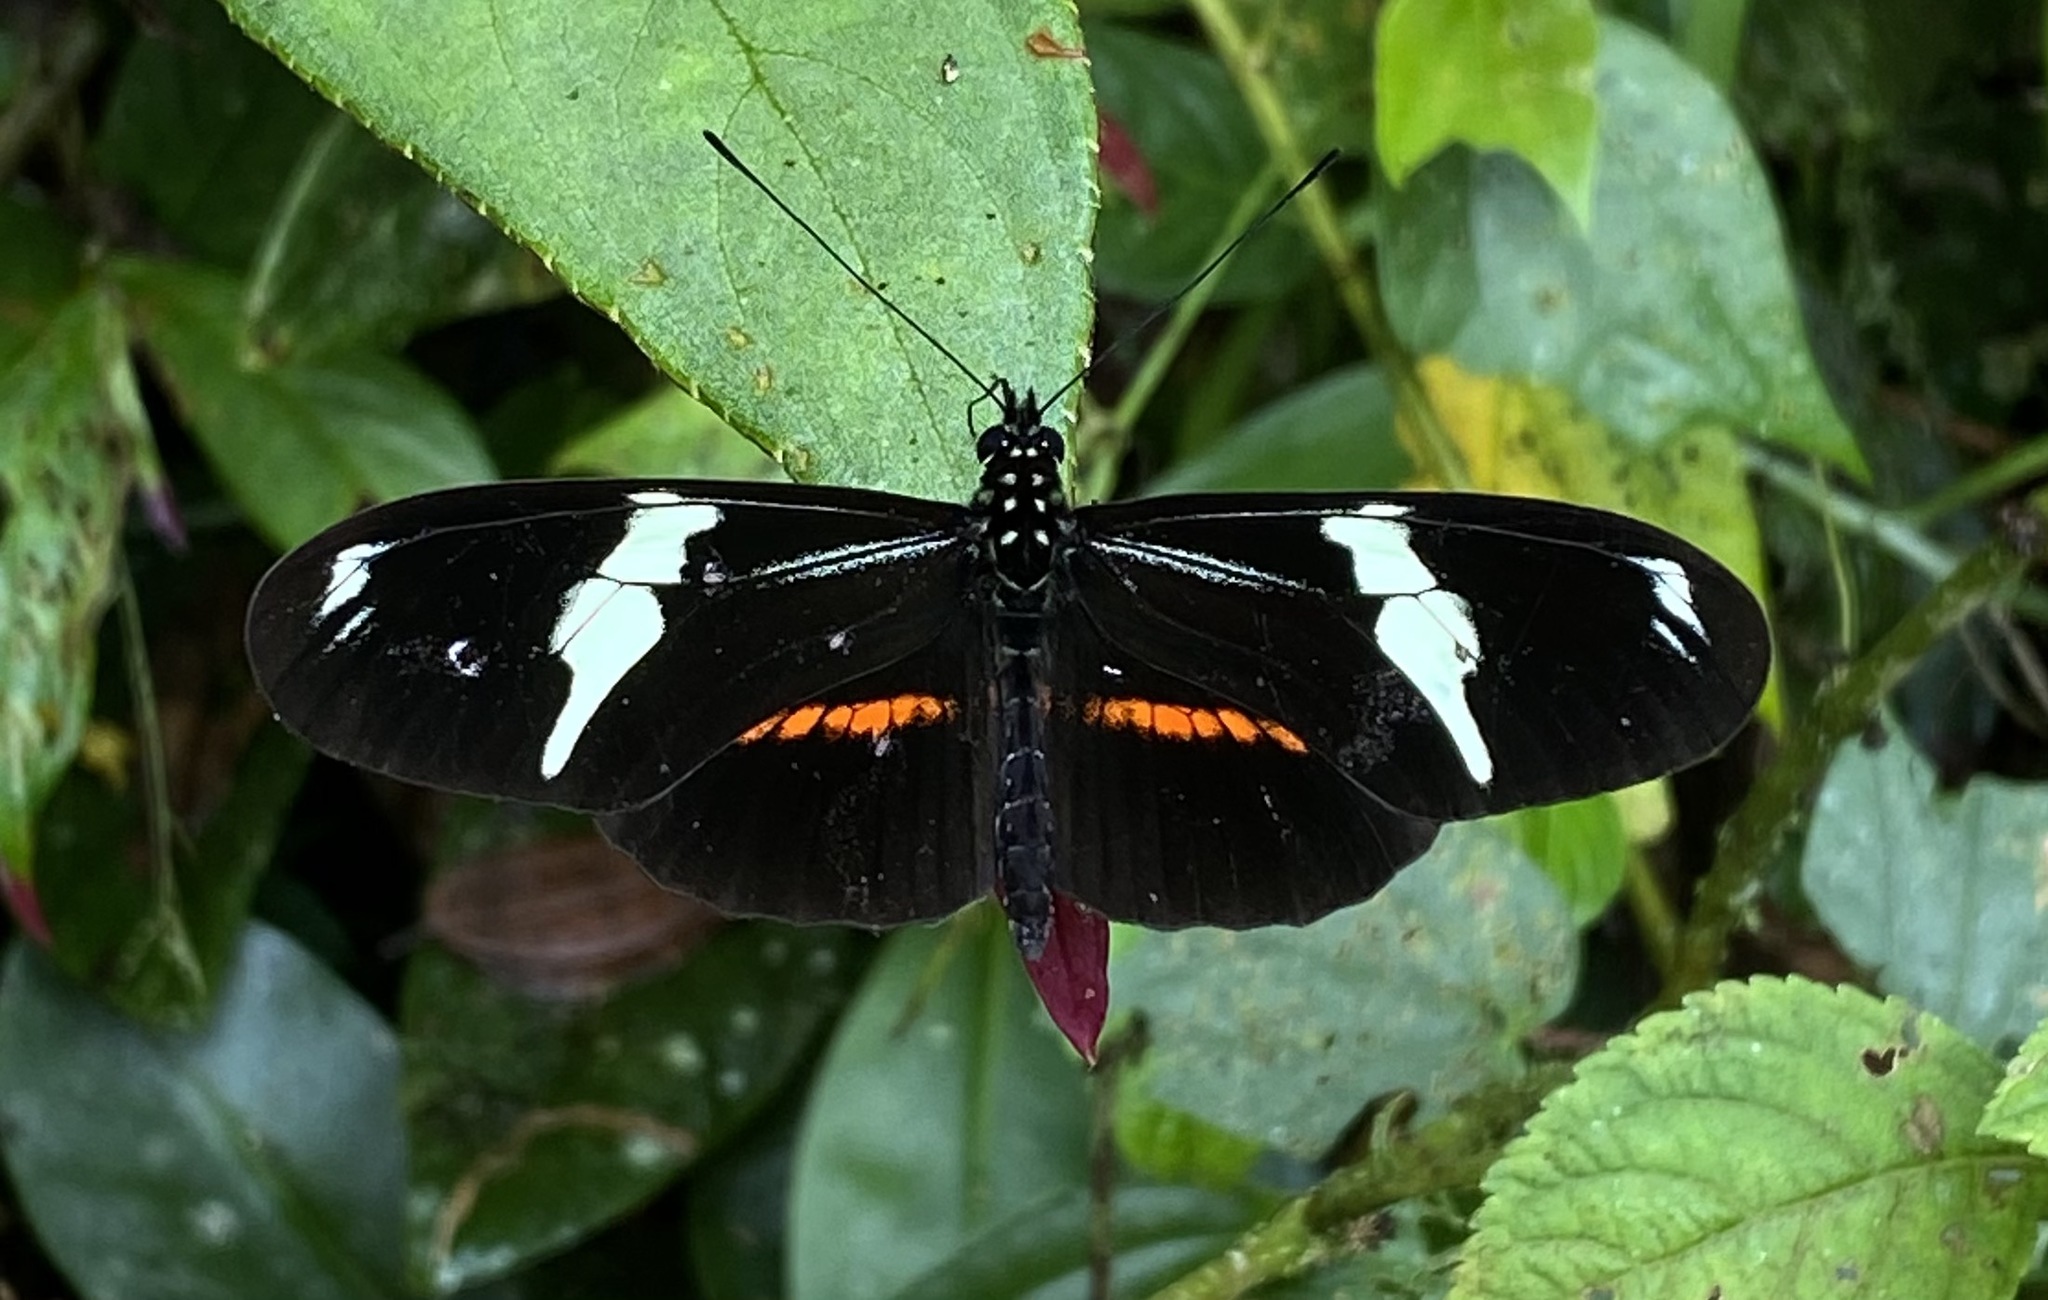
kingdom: Animalia
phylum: Arthropoda
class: Insecta
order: Lepidoptera
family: Nymphalidae
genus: Heliconius
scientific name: Heliconius clysonymus
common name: Clysonymus longwing
